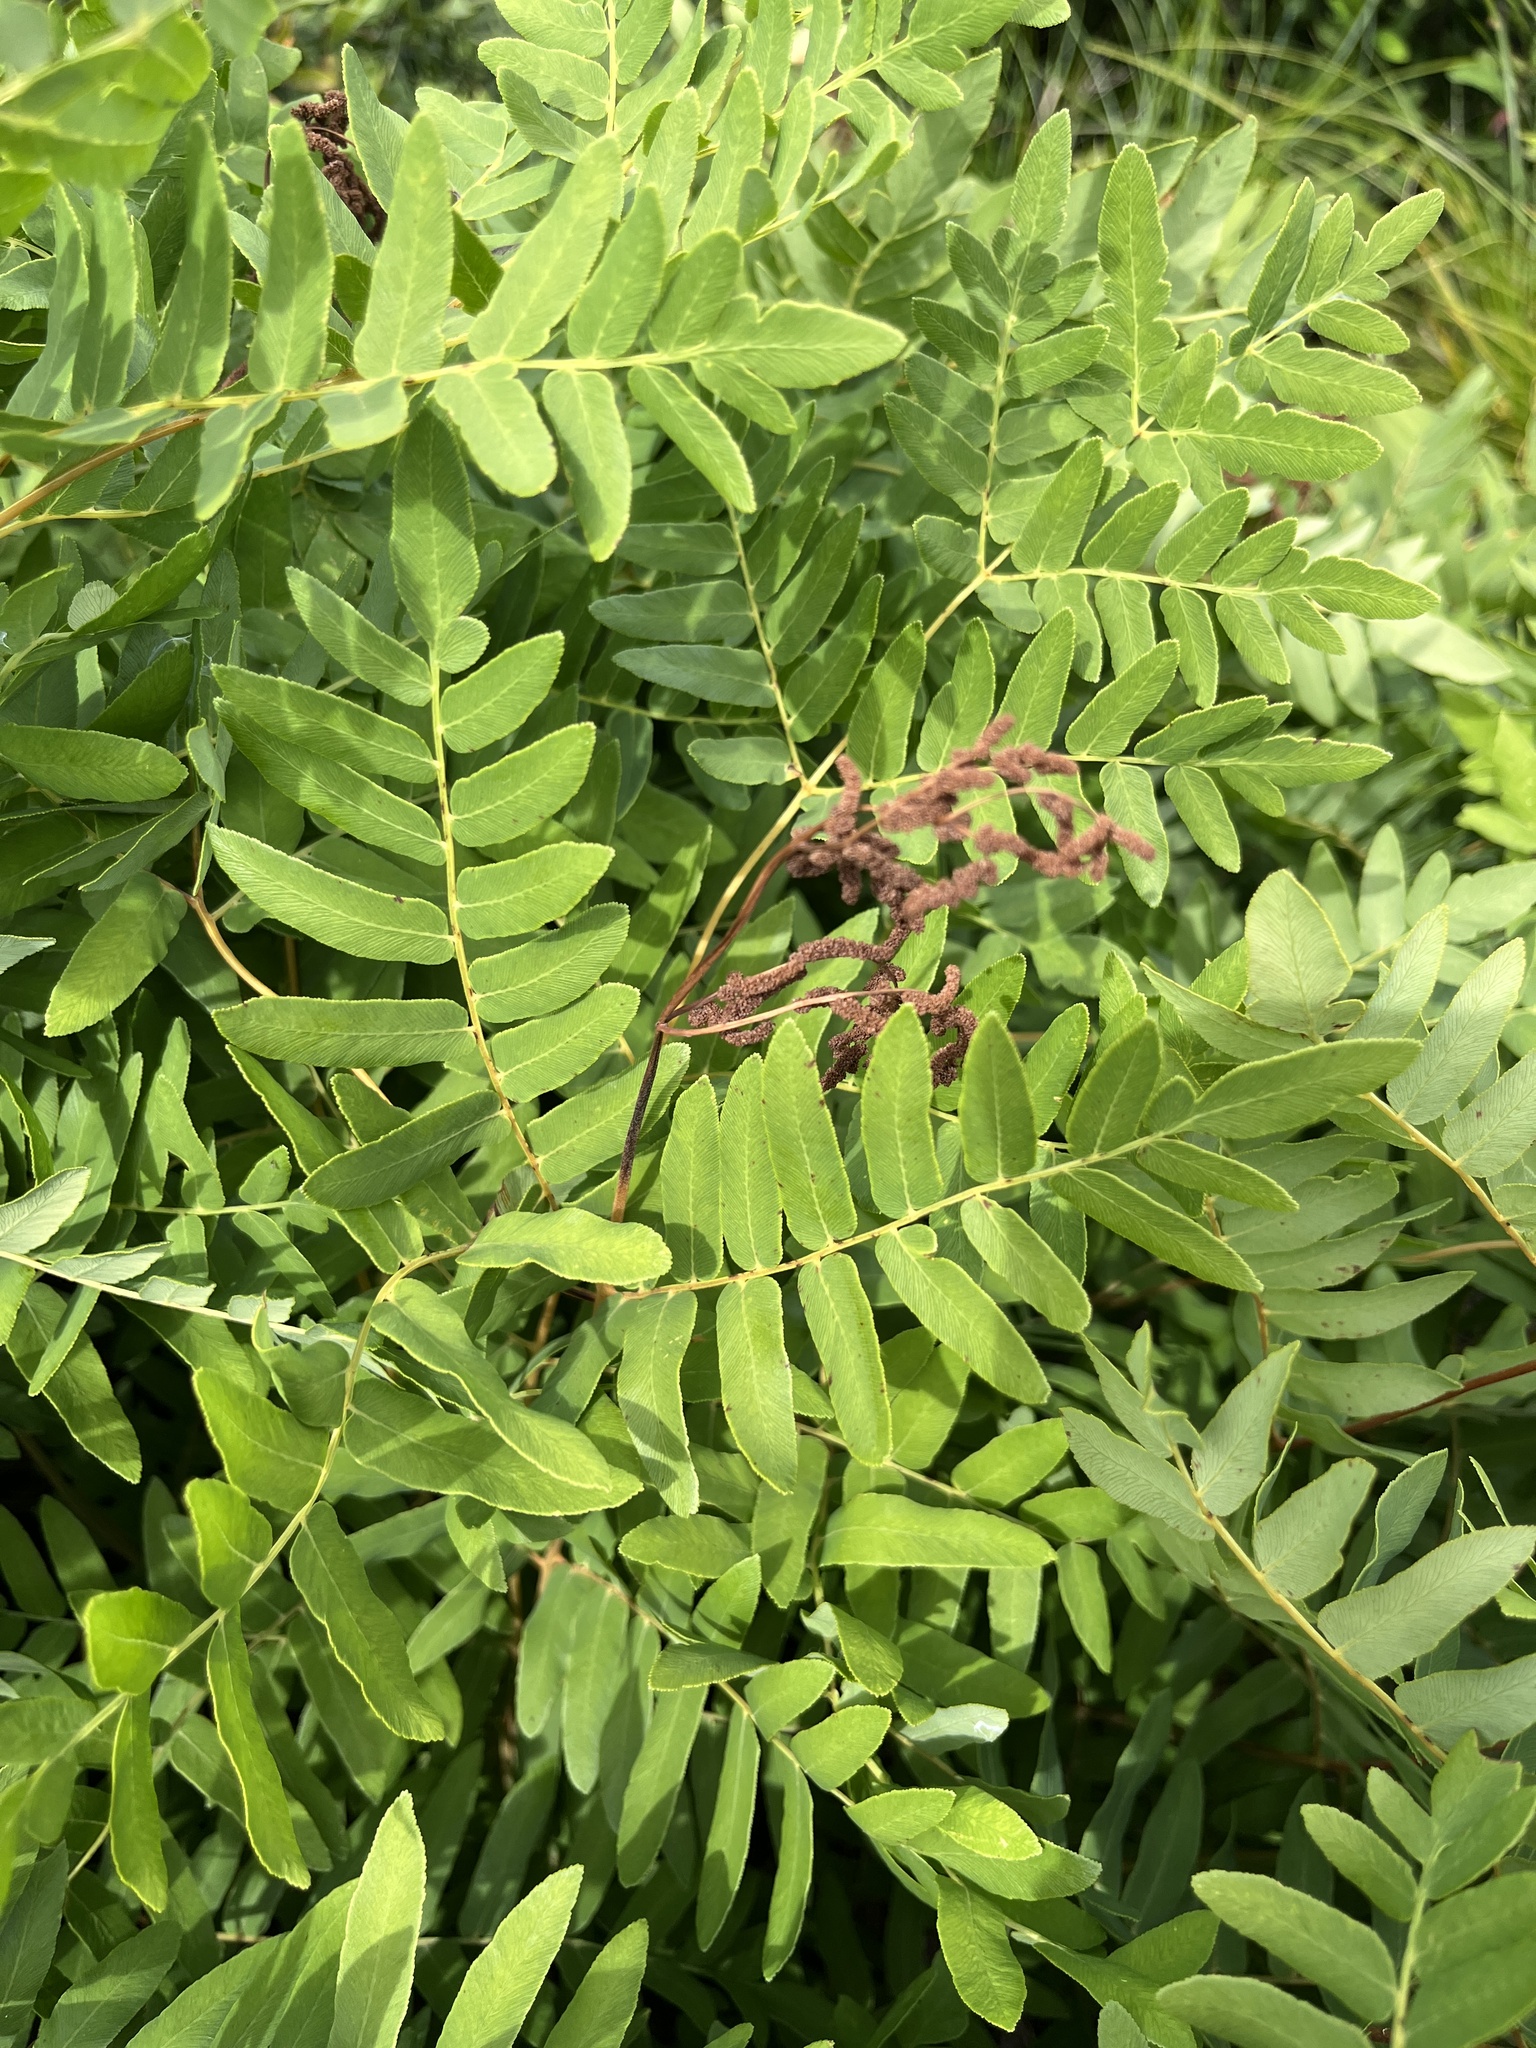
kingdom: Plantae
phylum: Tracheophyta
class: Polypodiopsida
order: Osmundales
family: Osmundaceae
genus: Osmunda
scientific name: Osmunda spectabilis
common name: American royal fern
